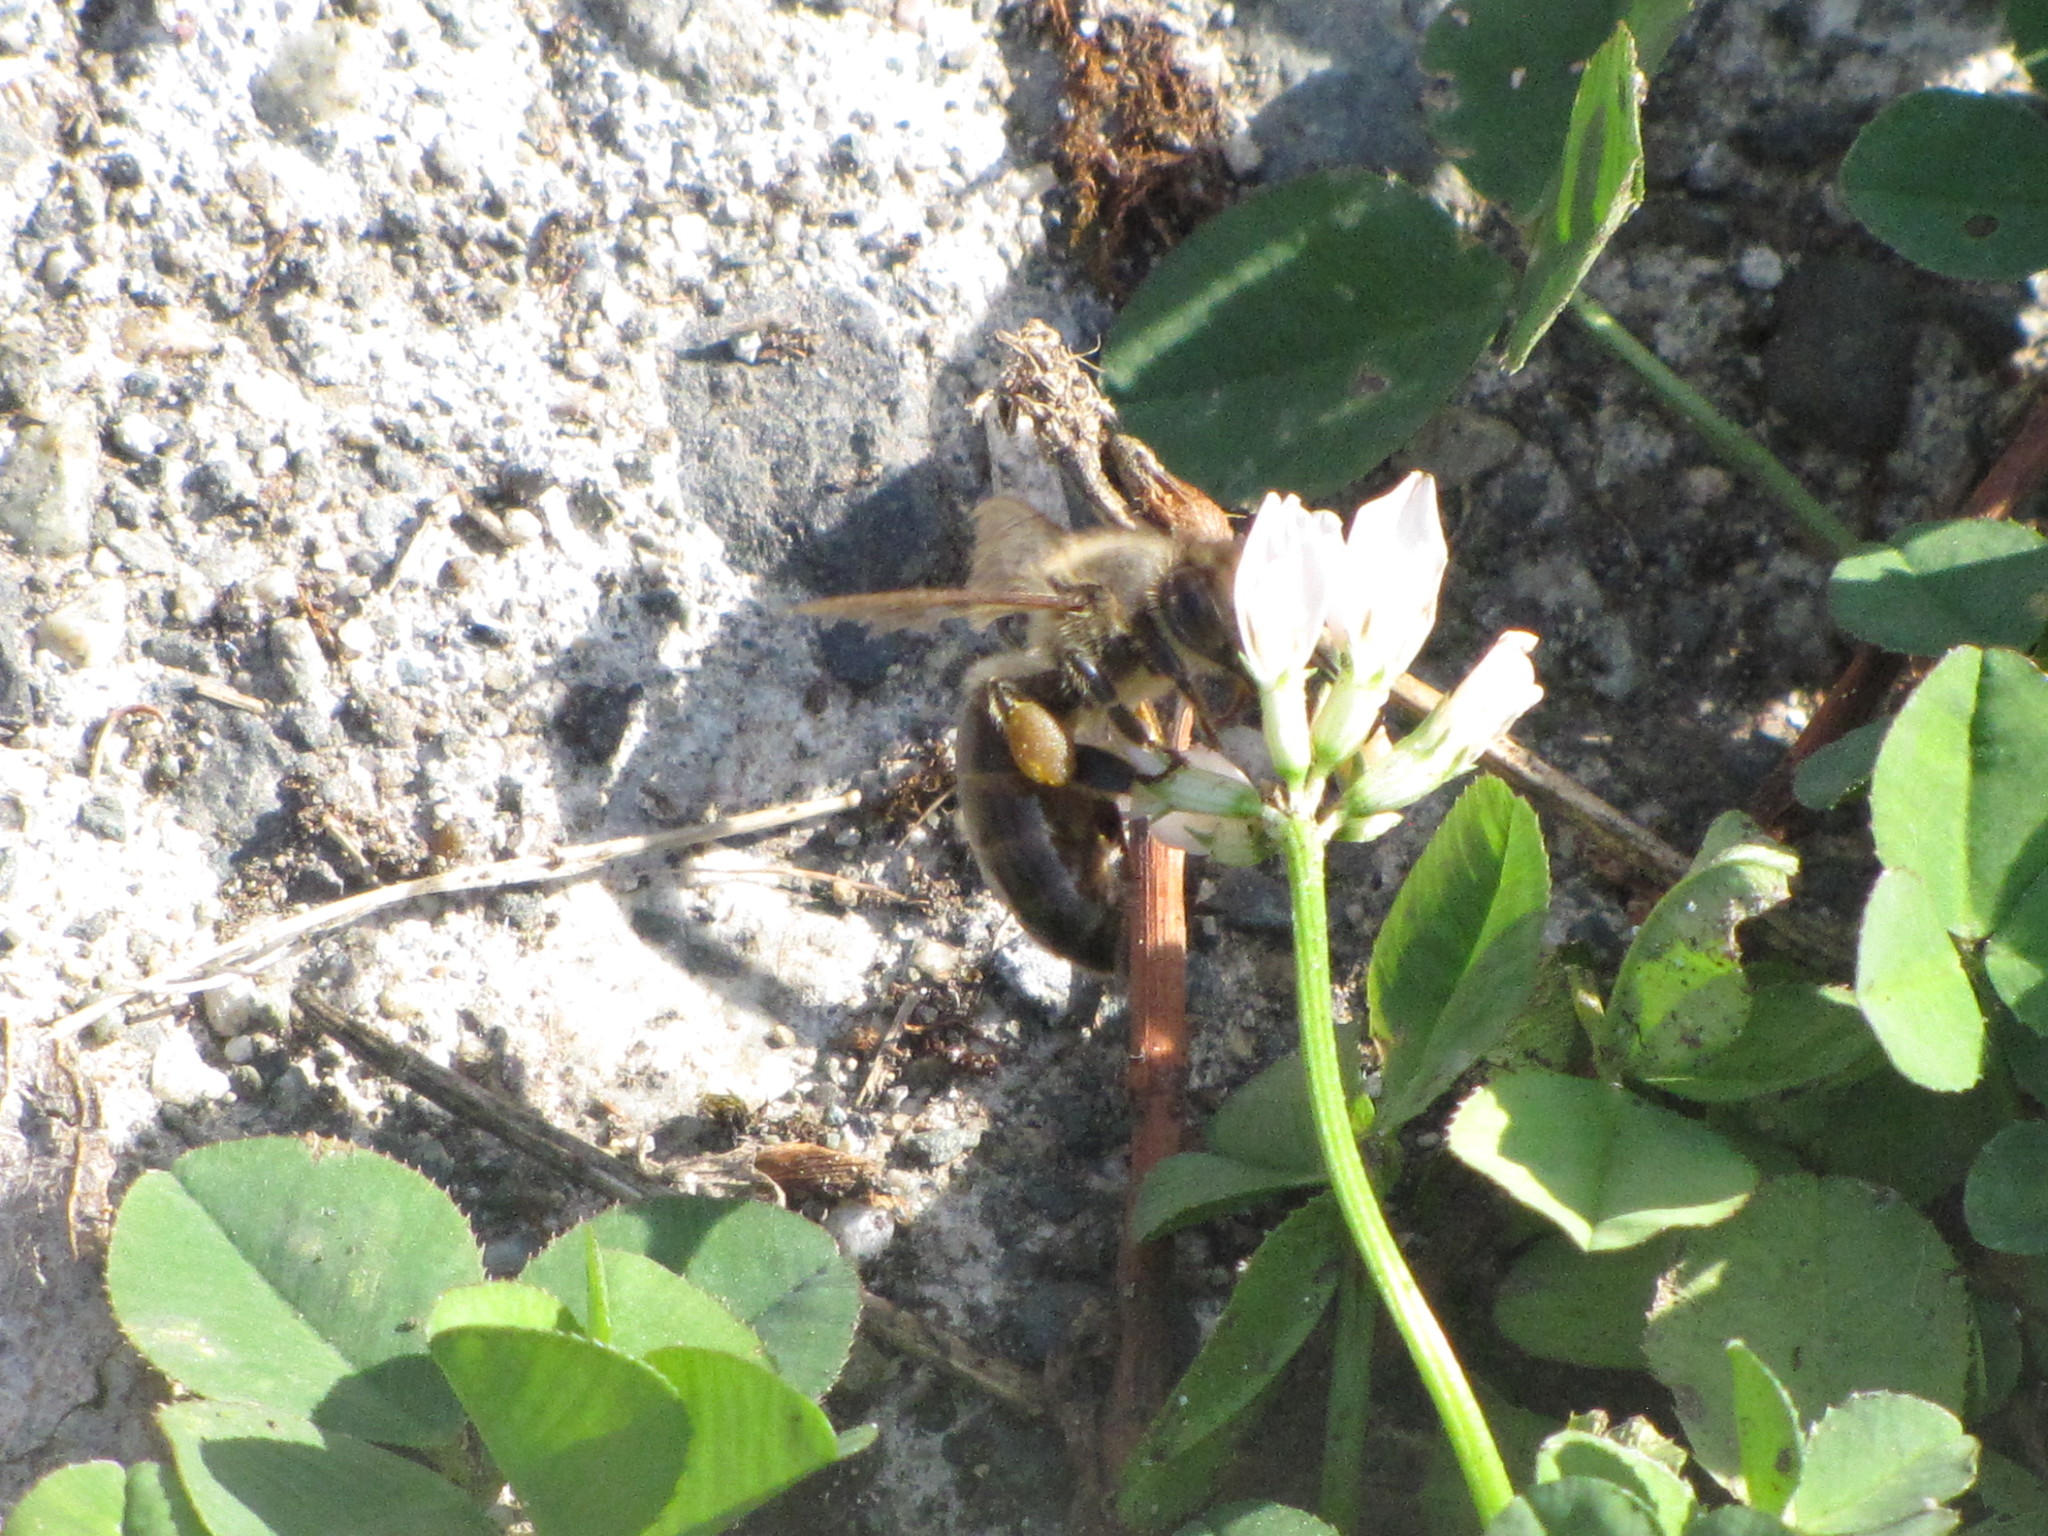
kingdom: Animalia
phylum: Arthropoda
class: Insecta
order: Hymenoptera
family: Apidae
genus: Apis
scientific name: Apis mellifera
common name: Honey bee
